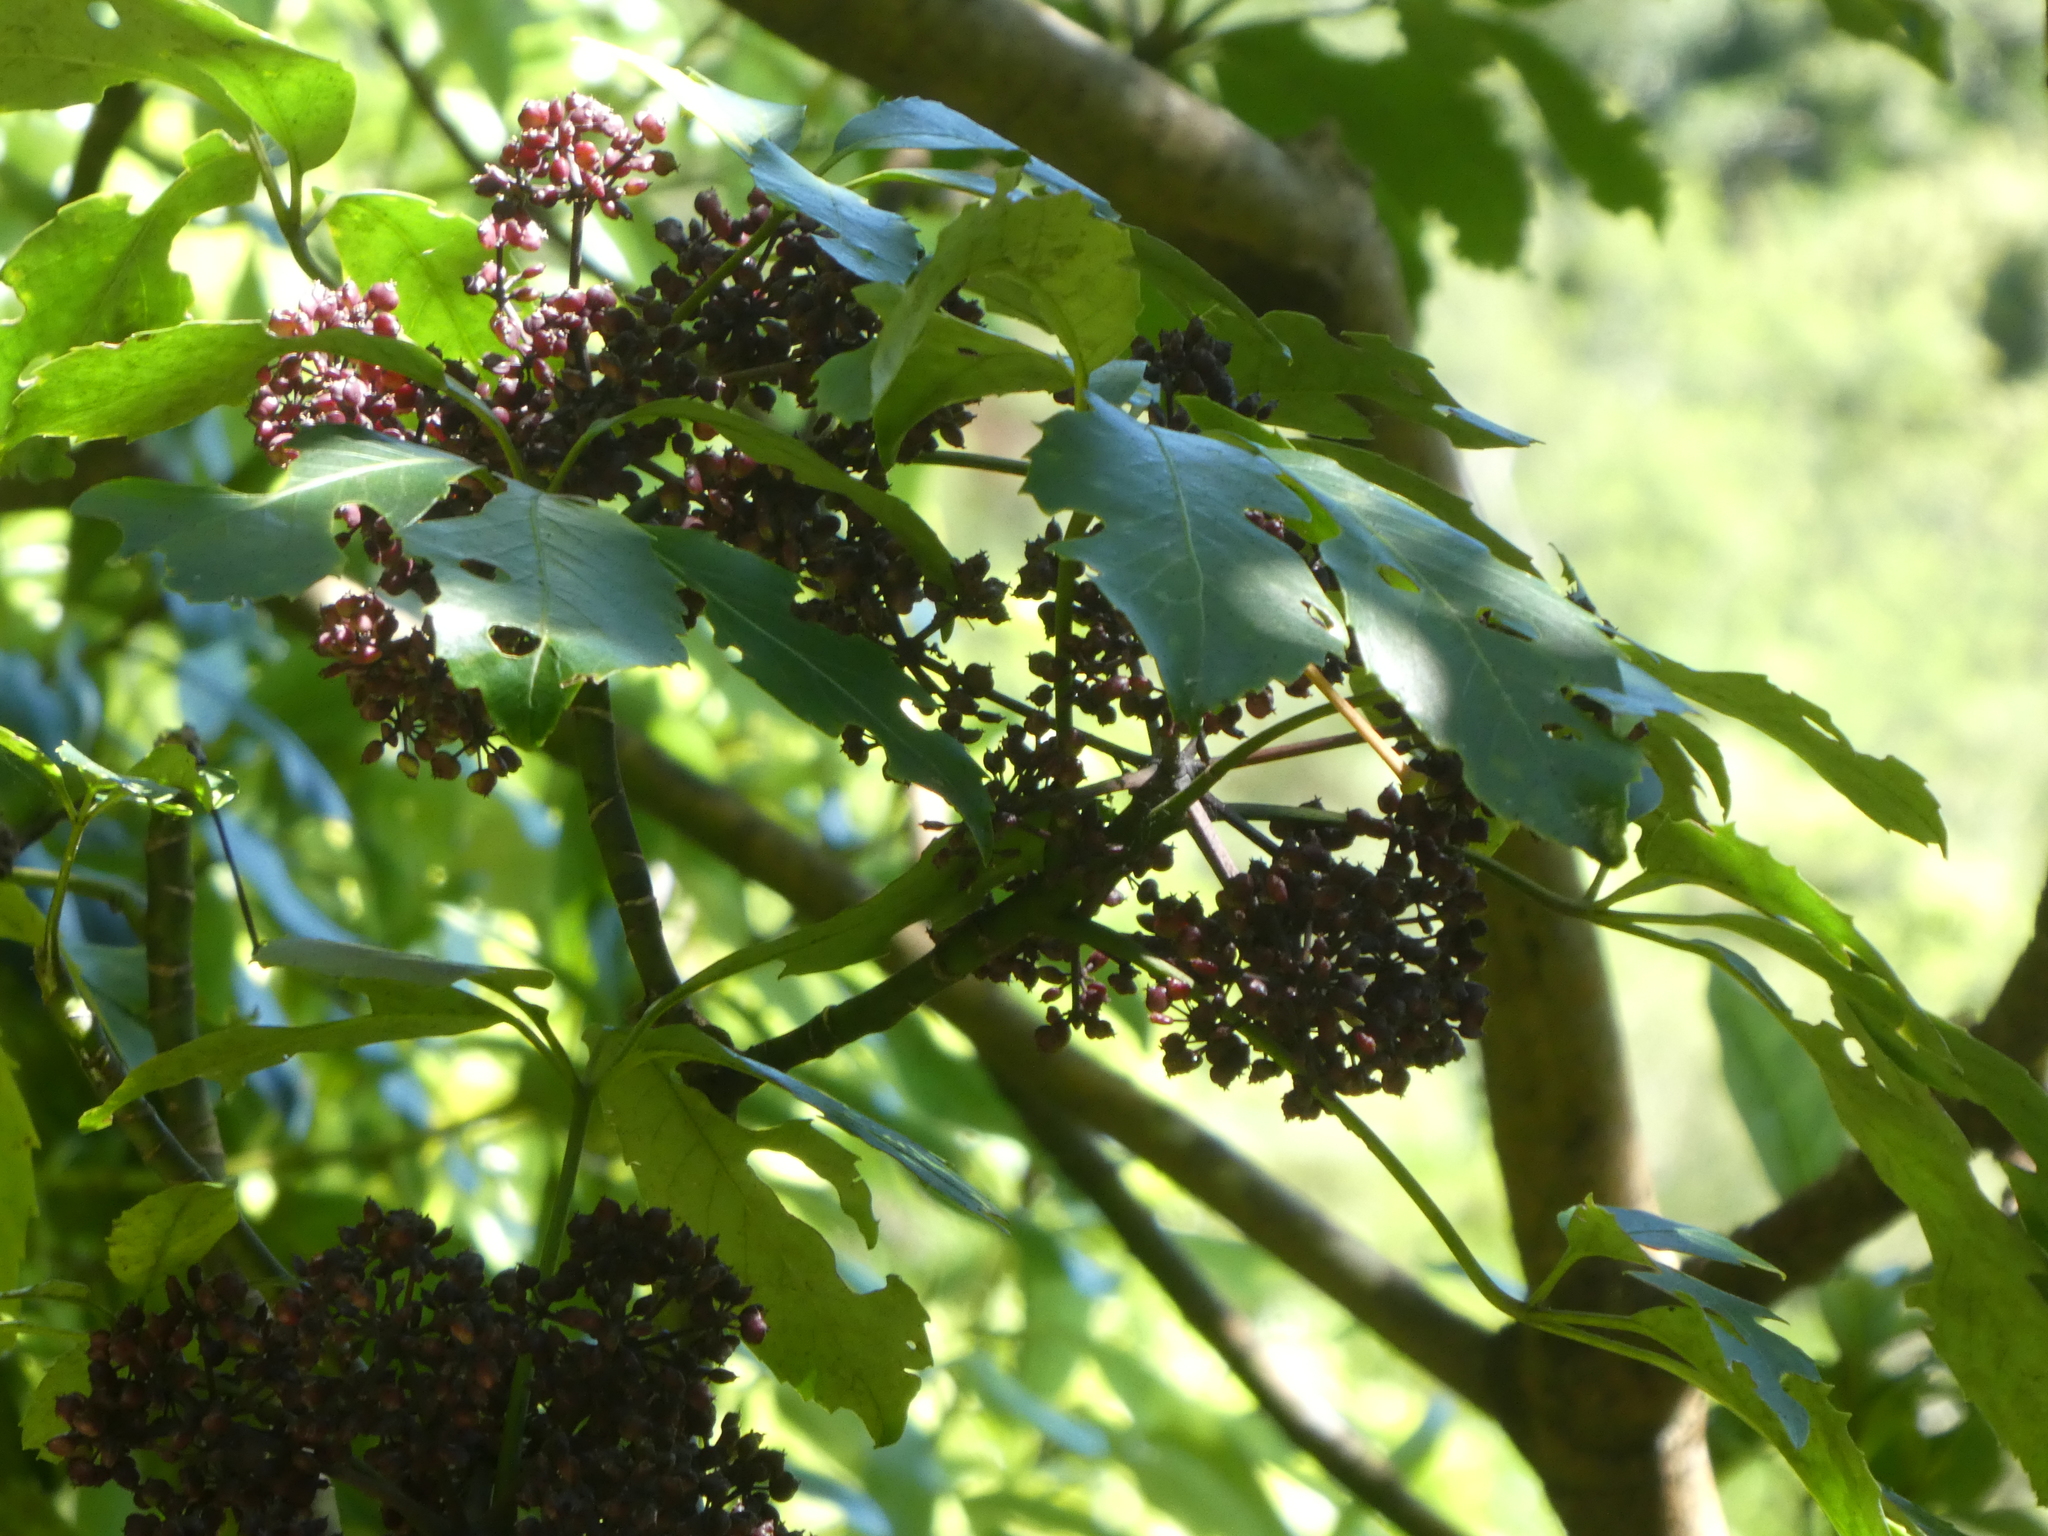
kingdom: Plantae
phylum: Tracheophyta
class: Magnoliopsida
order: Apiales
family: Araliaceae
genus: Neopanax
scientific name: Neopanax arboreus
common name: Five-fingers
